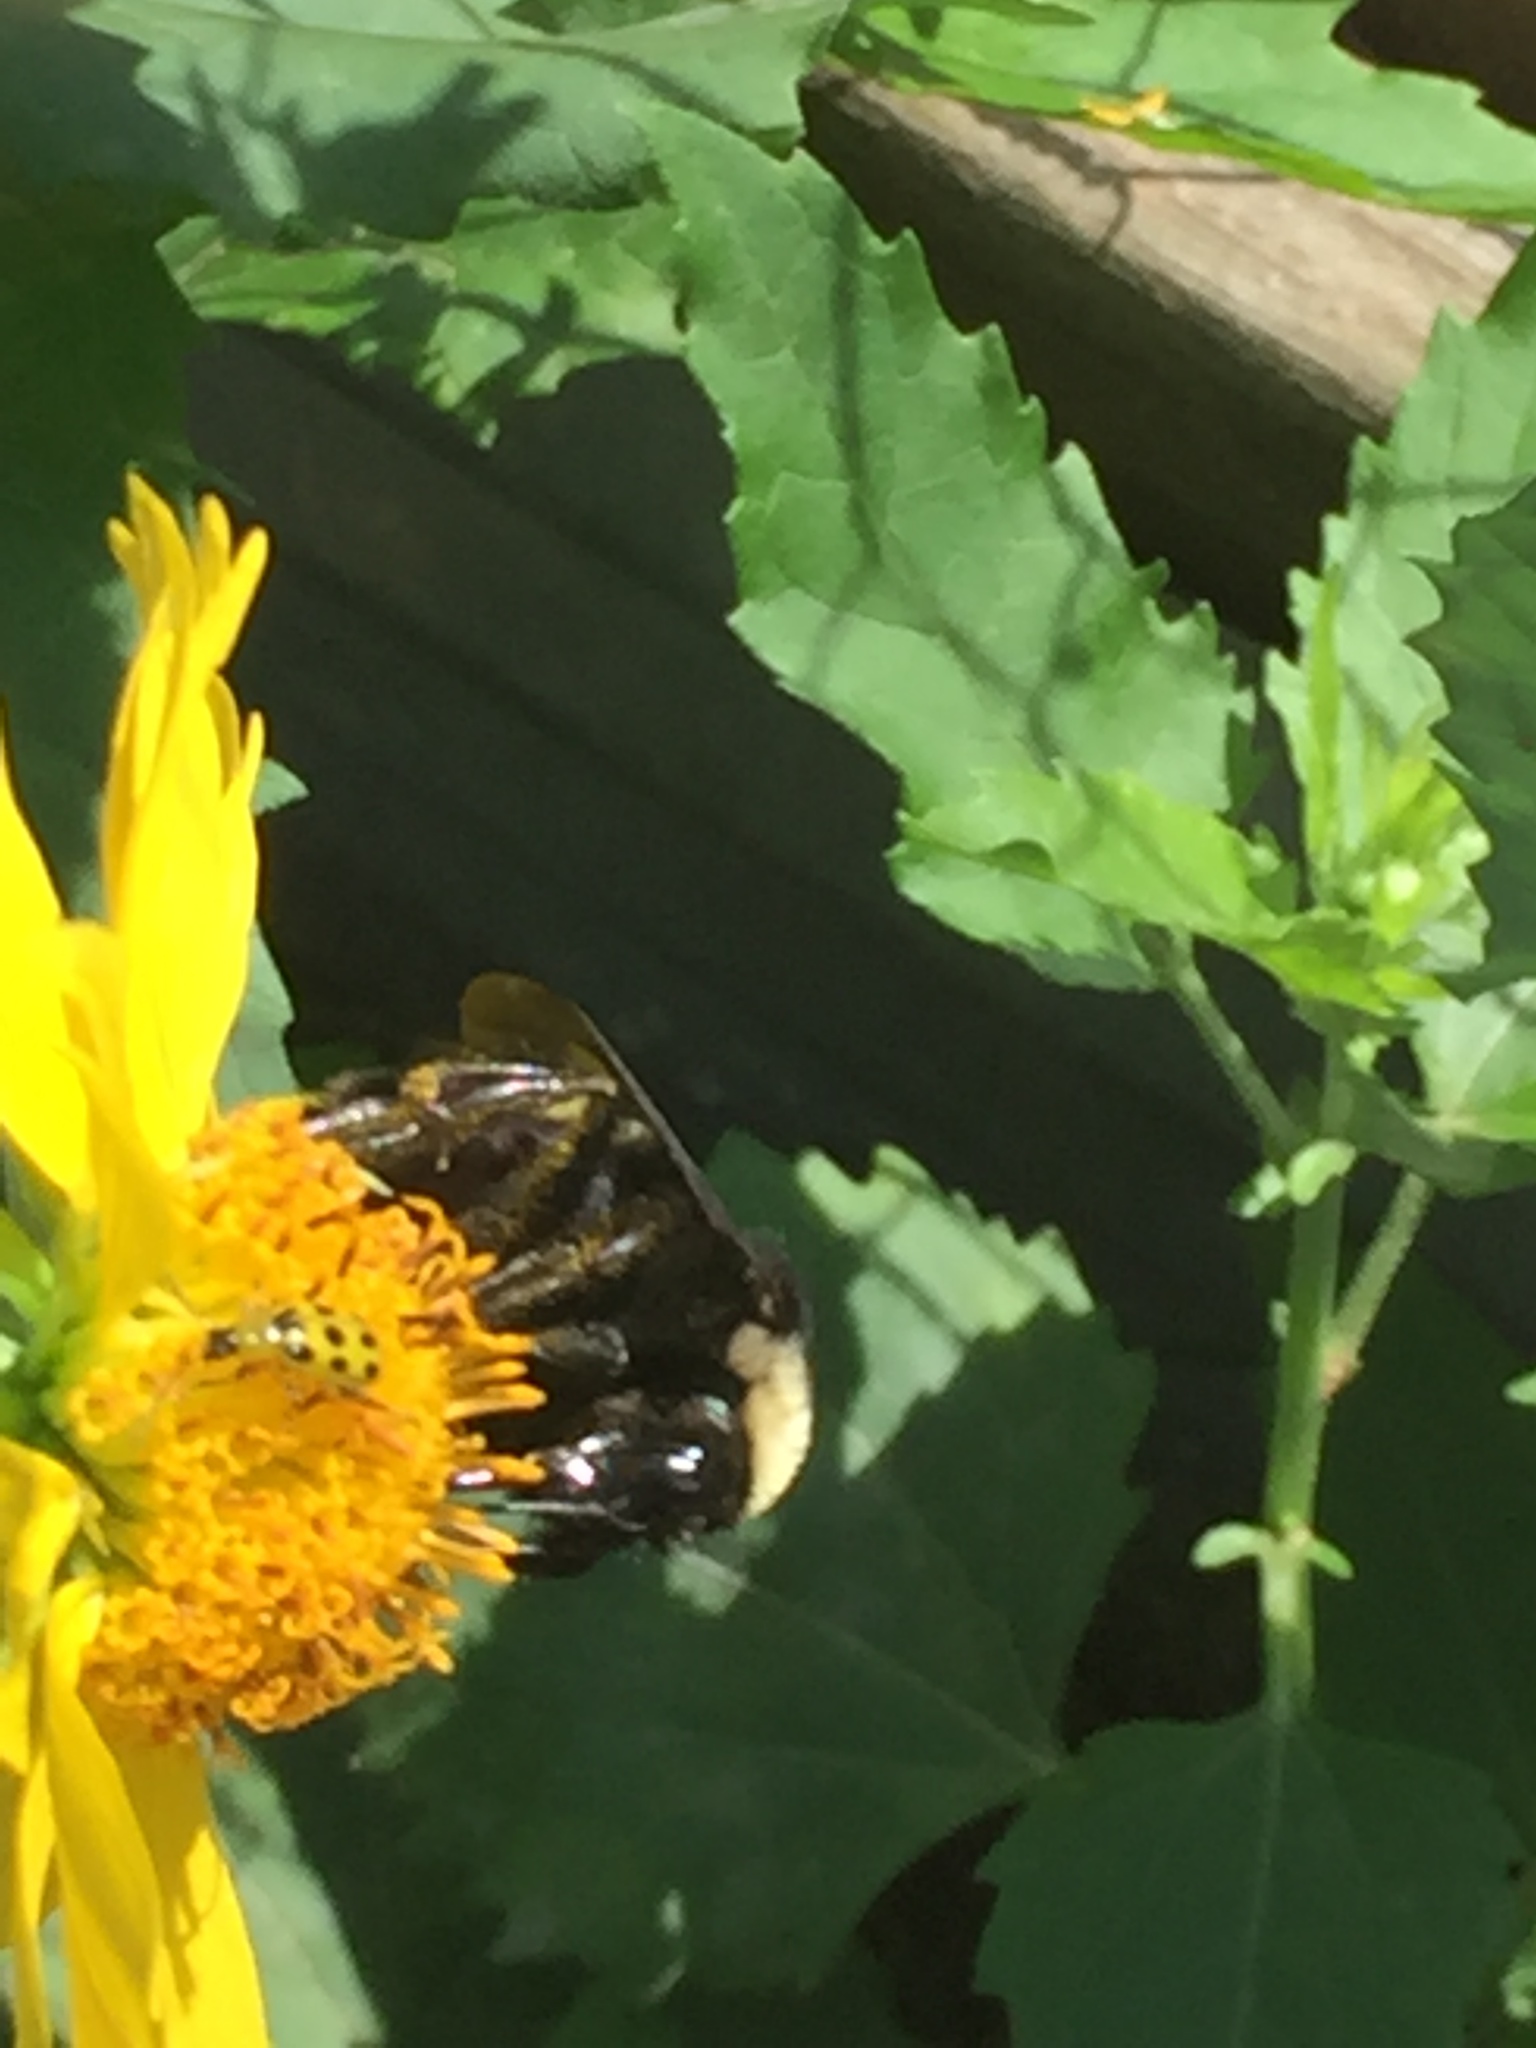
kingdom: Animalia
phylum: Arthropoda
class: Insecta
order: Hymenoptera
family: Apidae
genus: Bombus
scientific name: Bombus pensylvanicus
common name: Bumble bee
